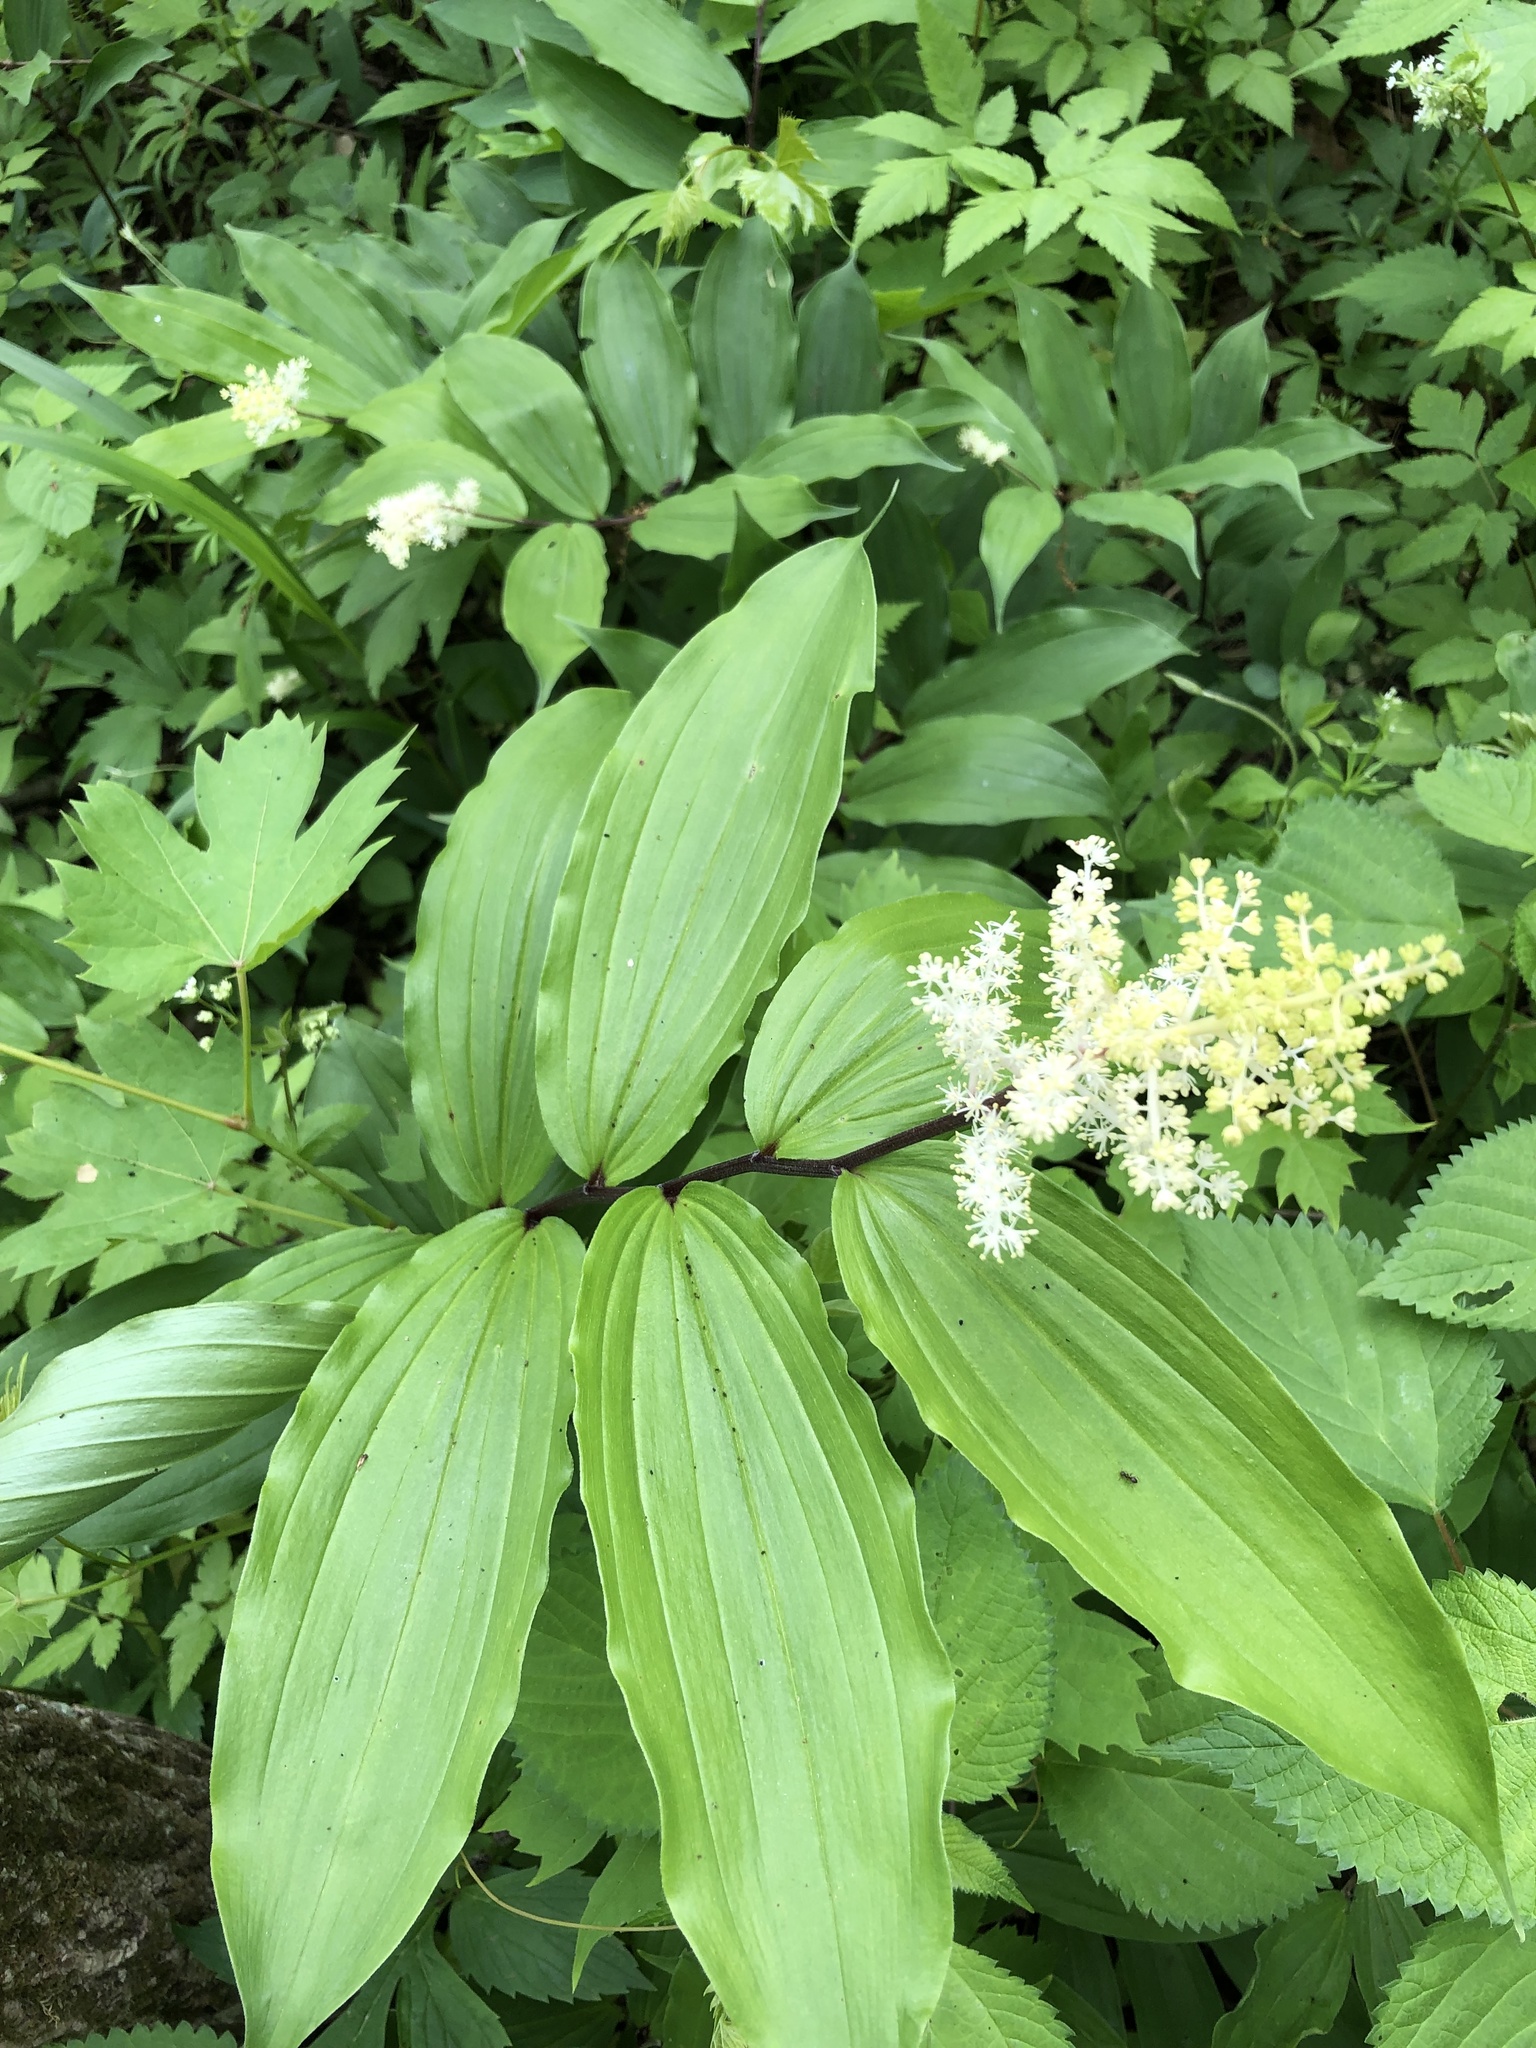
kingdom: Plantae
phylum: Tracheophyta
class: Liliopsida
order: Asparagales
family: Asparagaceae
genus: Maianthemum
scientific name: Maianthemum racemosum
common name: False spikenard
